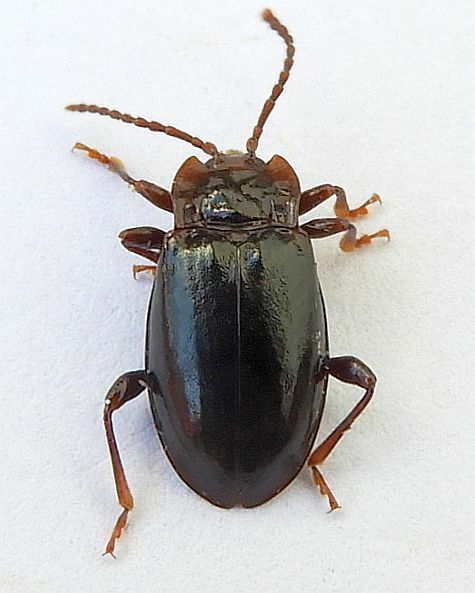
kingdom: Animalia
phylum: Arthropoda
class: Insecta
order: Coleoptera
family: Endomychidae
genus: Aphorista
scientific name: Aphorista morosa
